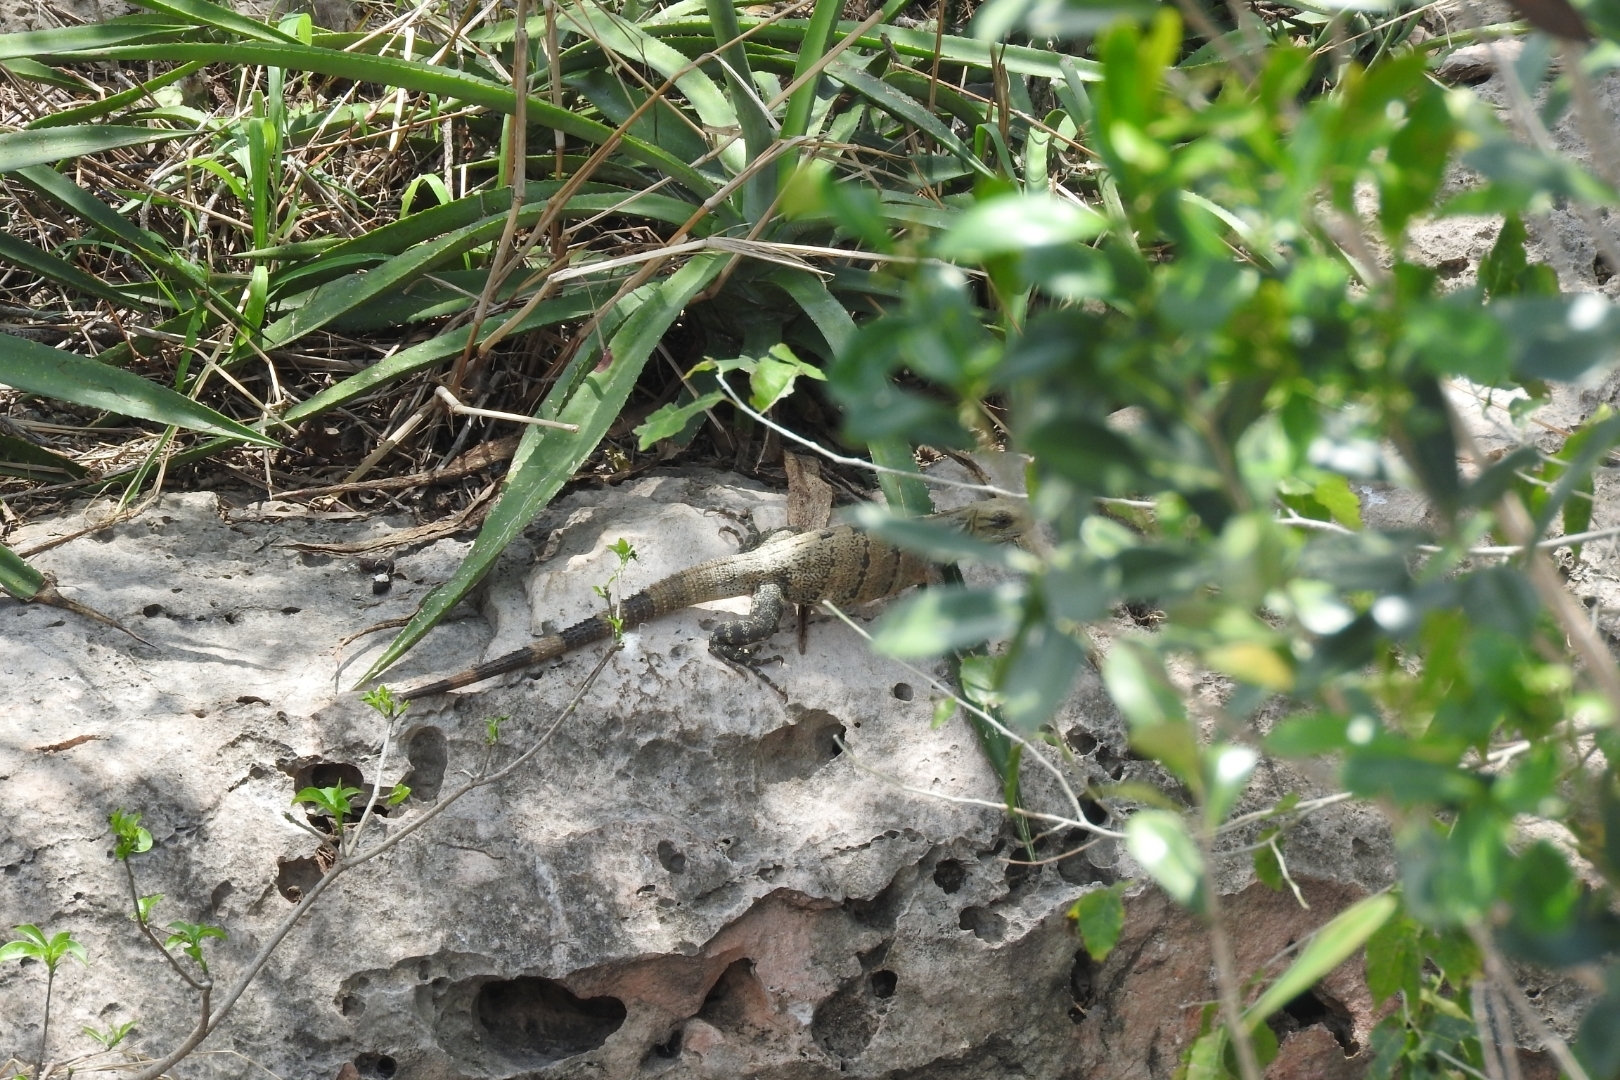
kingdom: Animalia
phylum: Chordata
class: Squamata
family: Iguanidae
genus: Ctenosaura
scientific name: Ctenosaura similis
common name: Black spiny-tailed iguana
